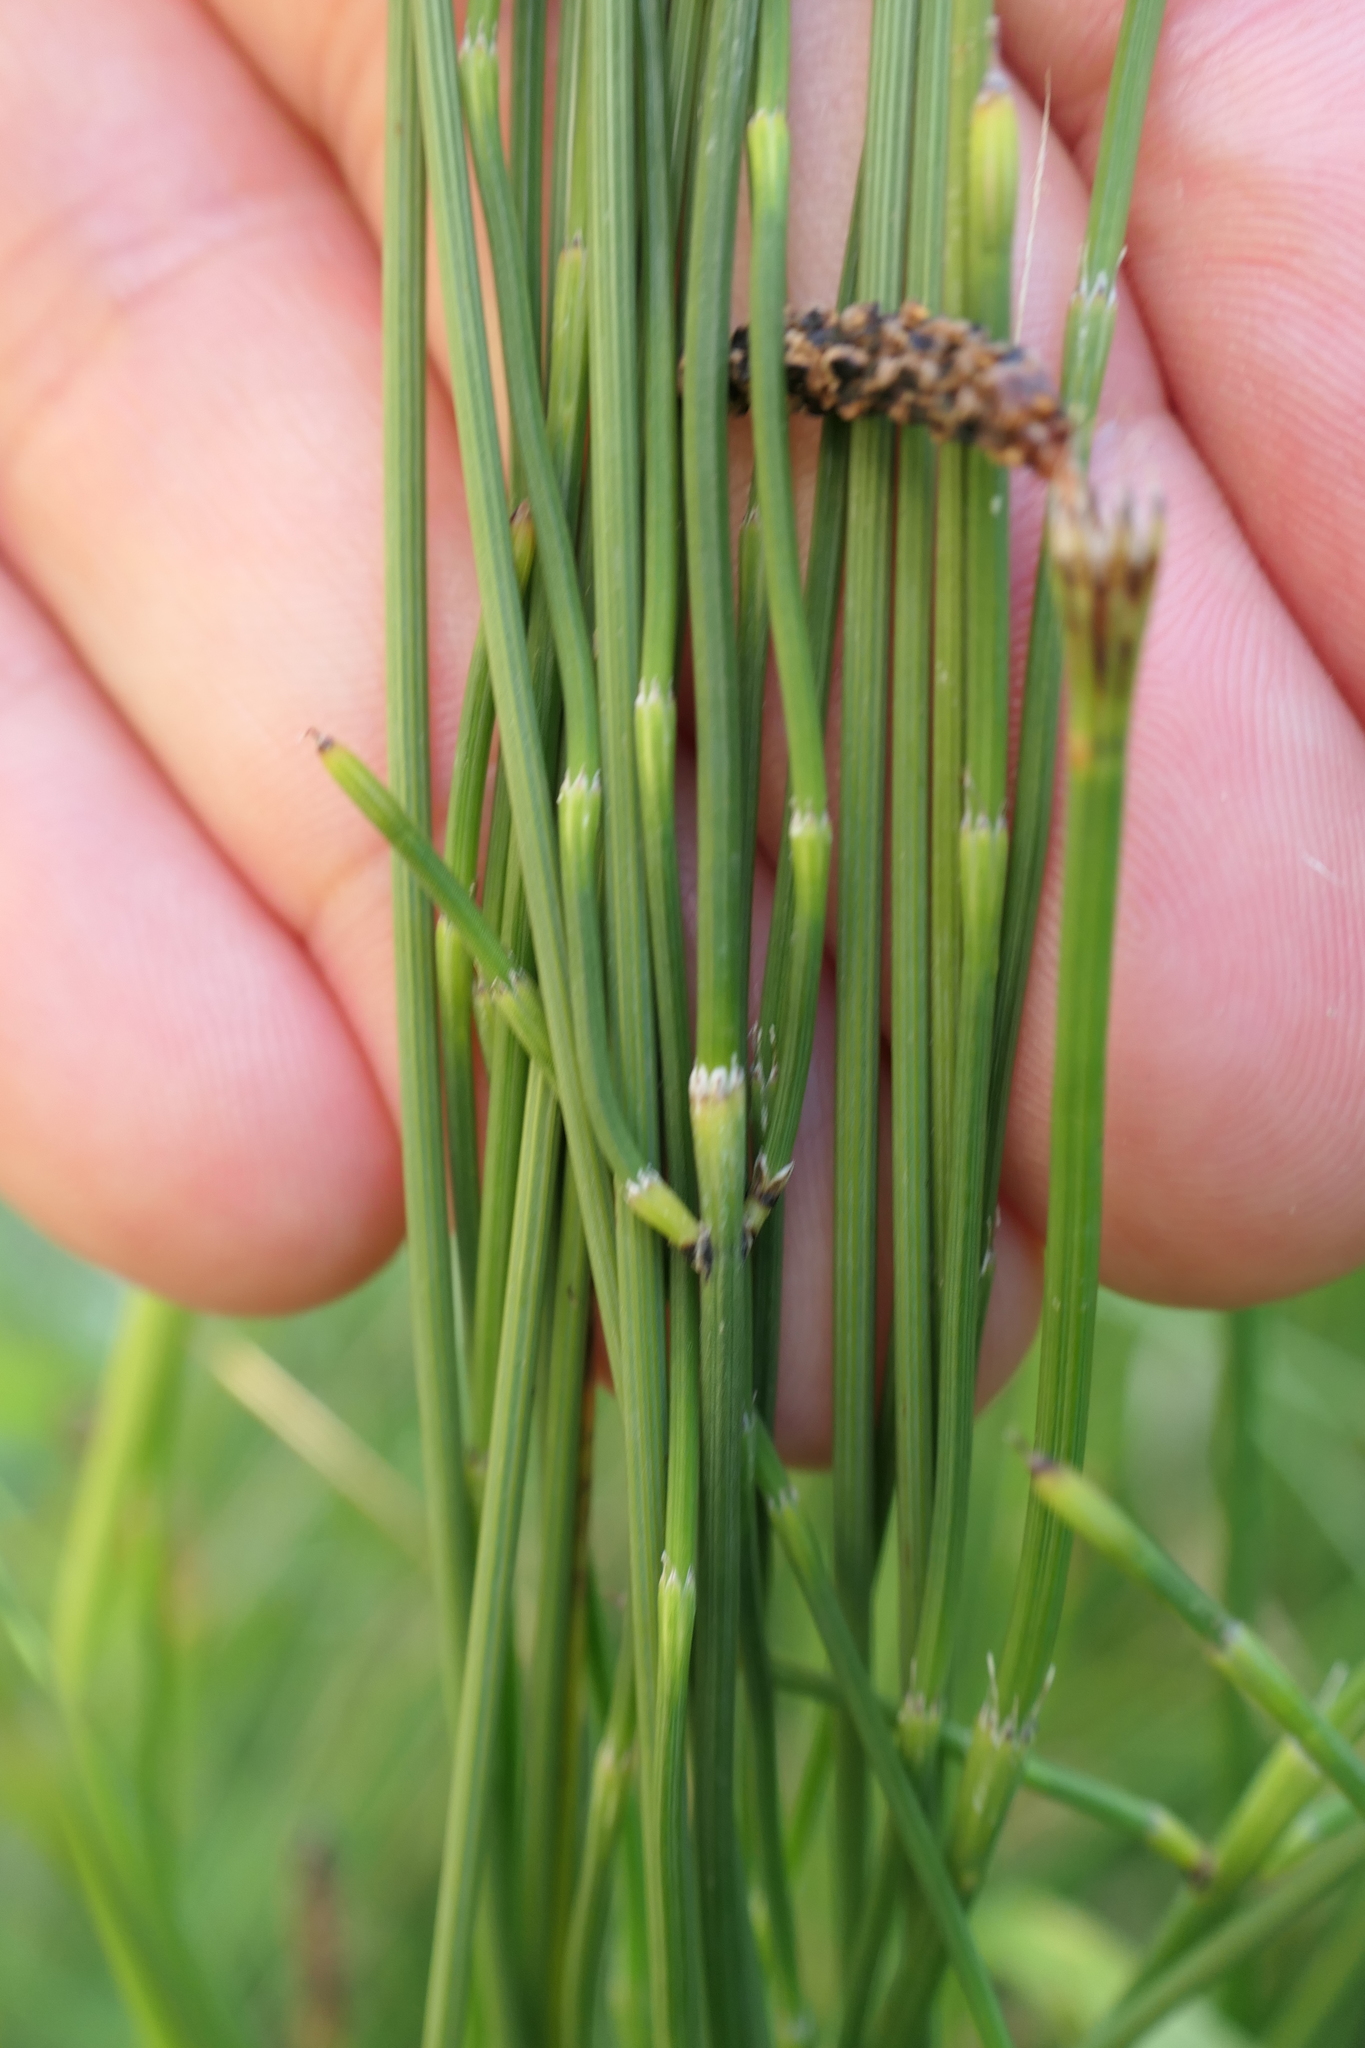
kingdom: Plantae
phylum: Tracheophyta
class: Polypodiopsida
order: Equisetales
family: Equisetaceae
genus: Equisetum
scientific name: Equisetum ramosissimum
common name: Branched horsetail
